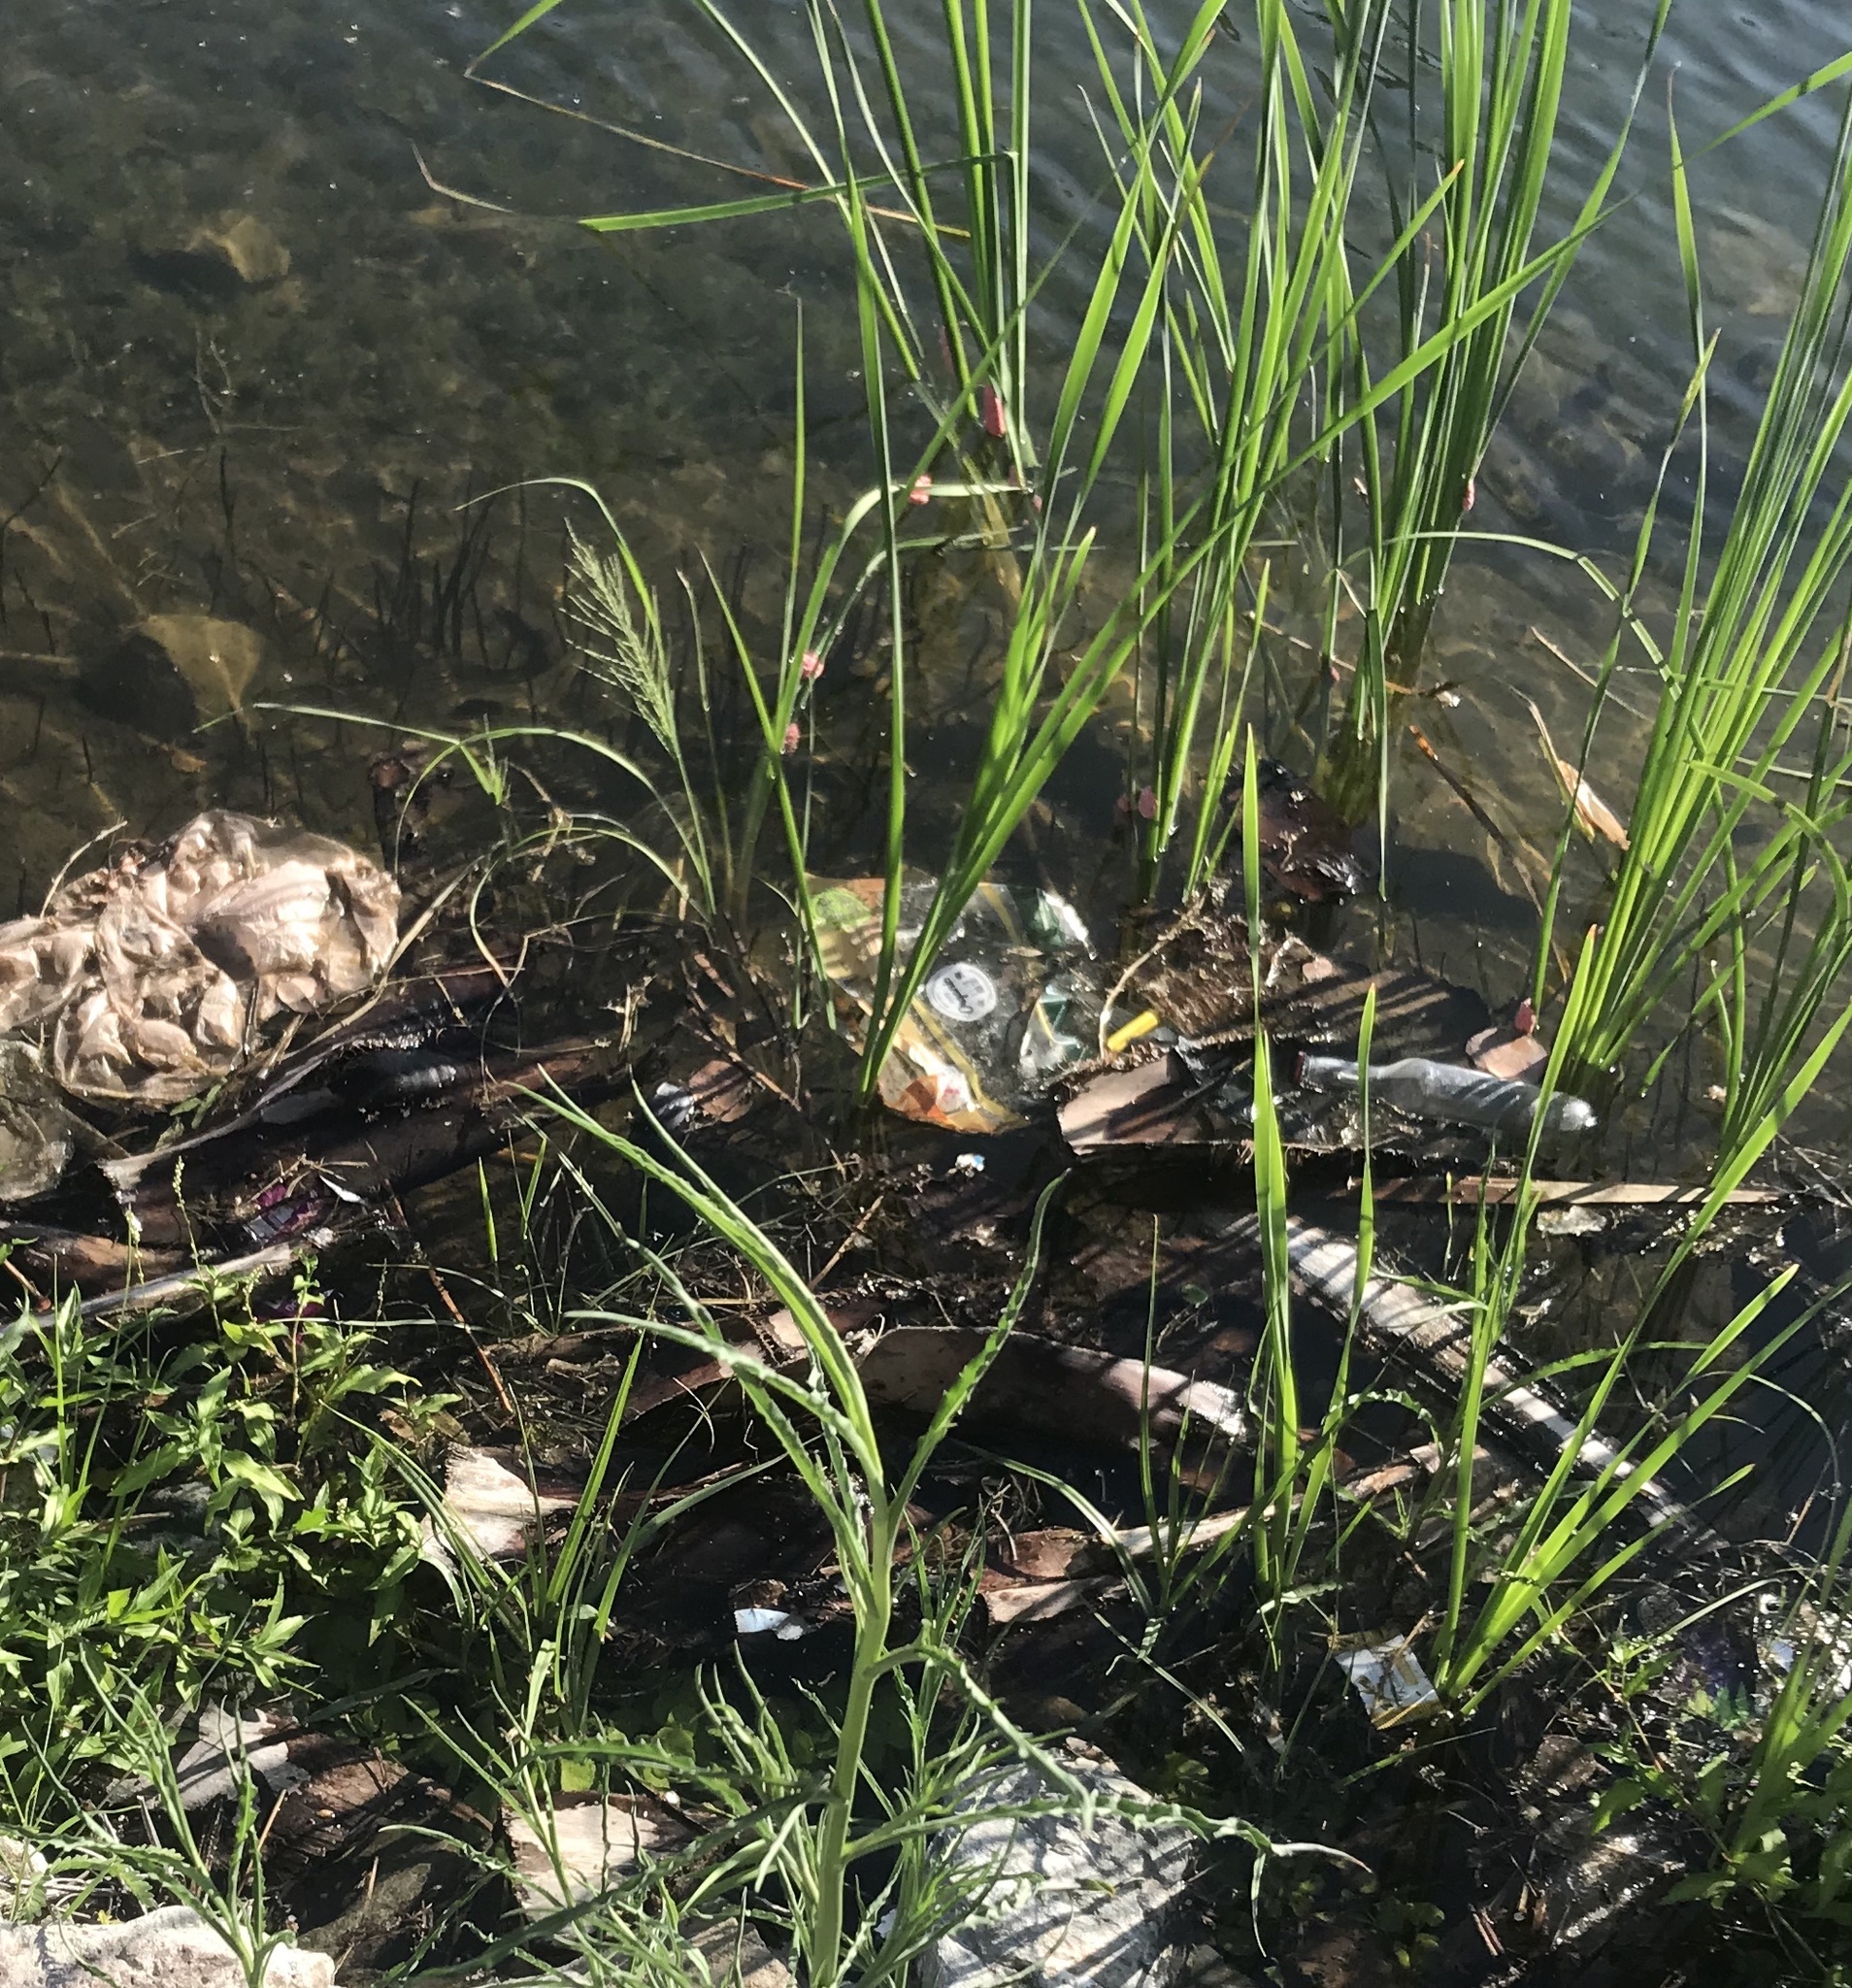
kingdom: Animalia
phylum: Mollusca
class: Gastropoda
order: Architaenioglossa
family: Ampullariidae
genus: Pomacea
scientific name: Pomacea canaliculata
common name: Channeled applesnail
